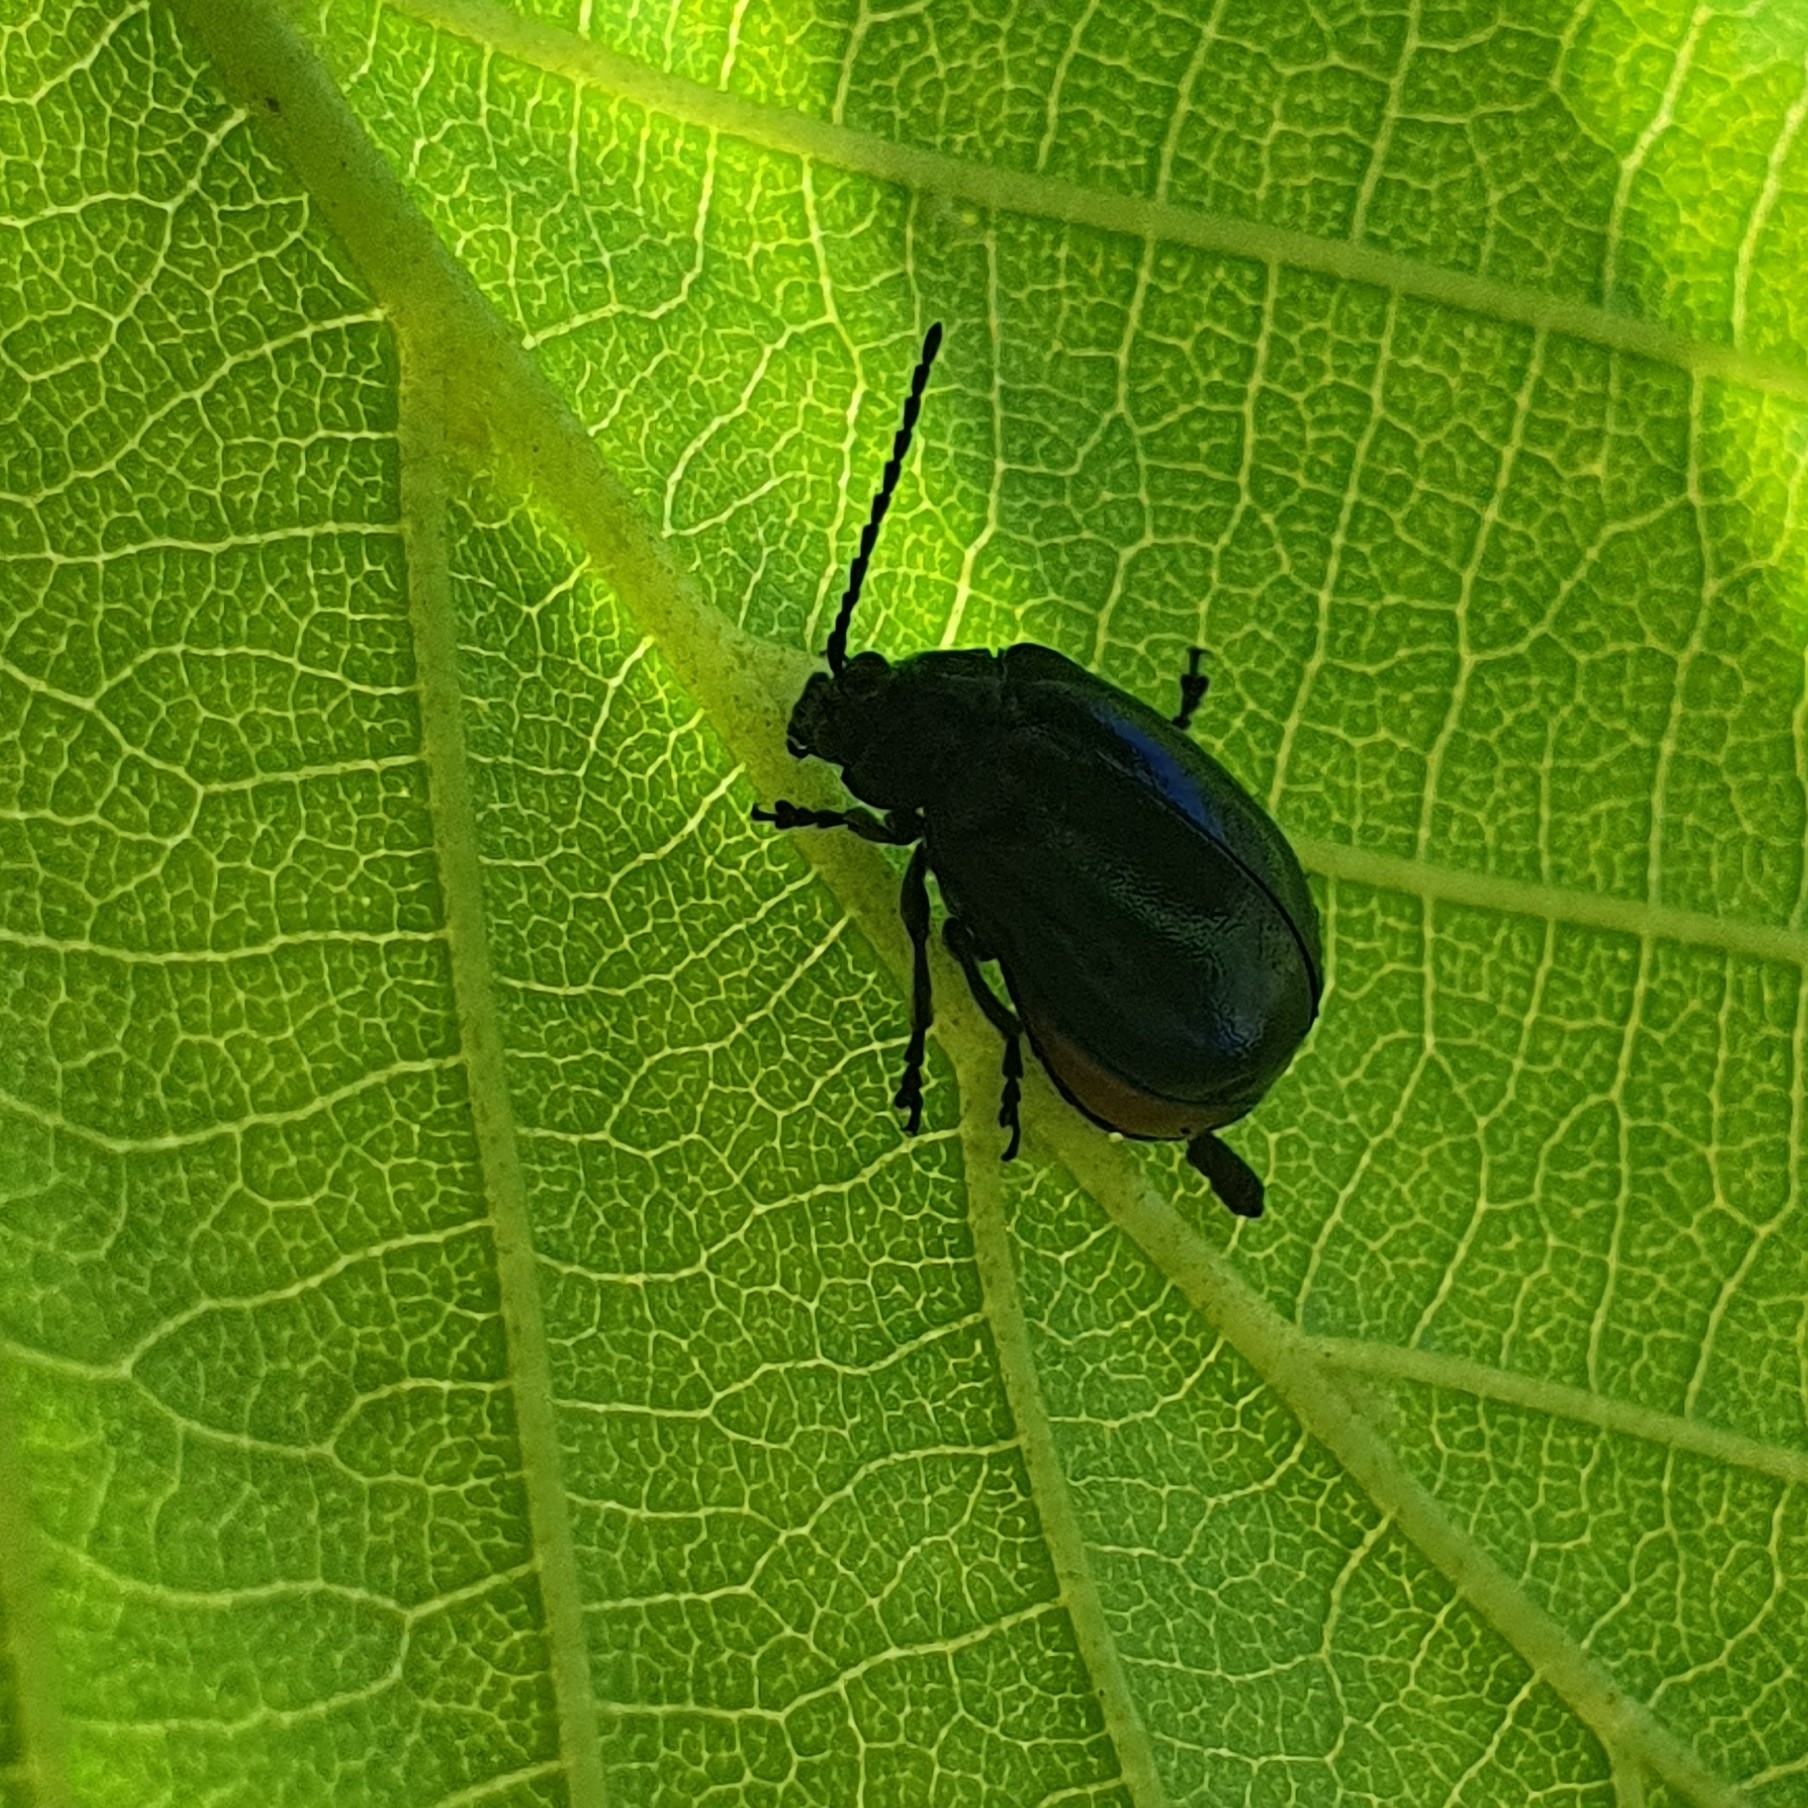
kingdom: Animalia
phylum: Arthropoda
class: Insecta
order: Coleoptera
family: Chrysomelidae
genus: Agelastica
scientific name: Agelastica alni
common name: Alder leaf beetle
